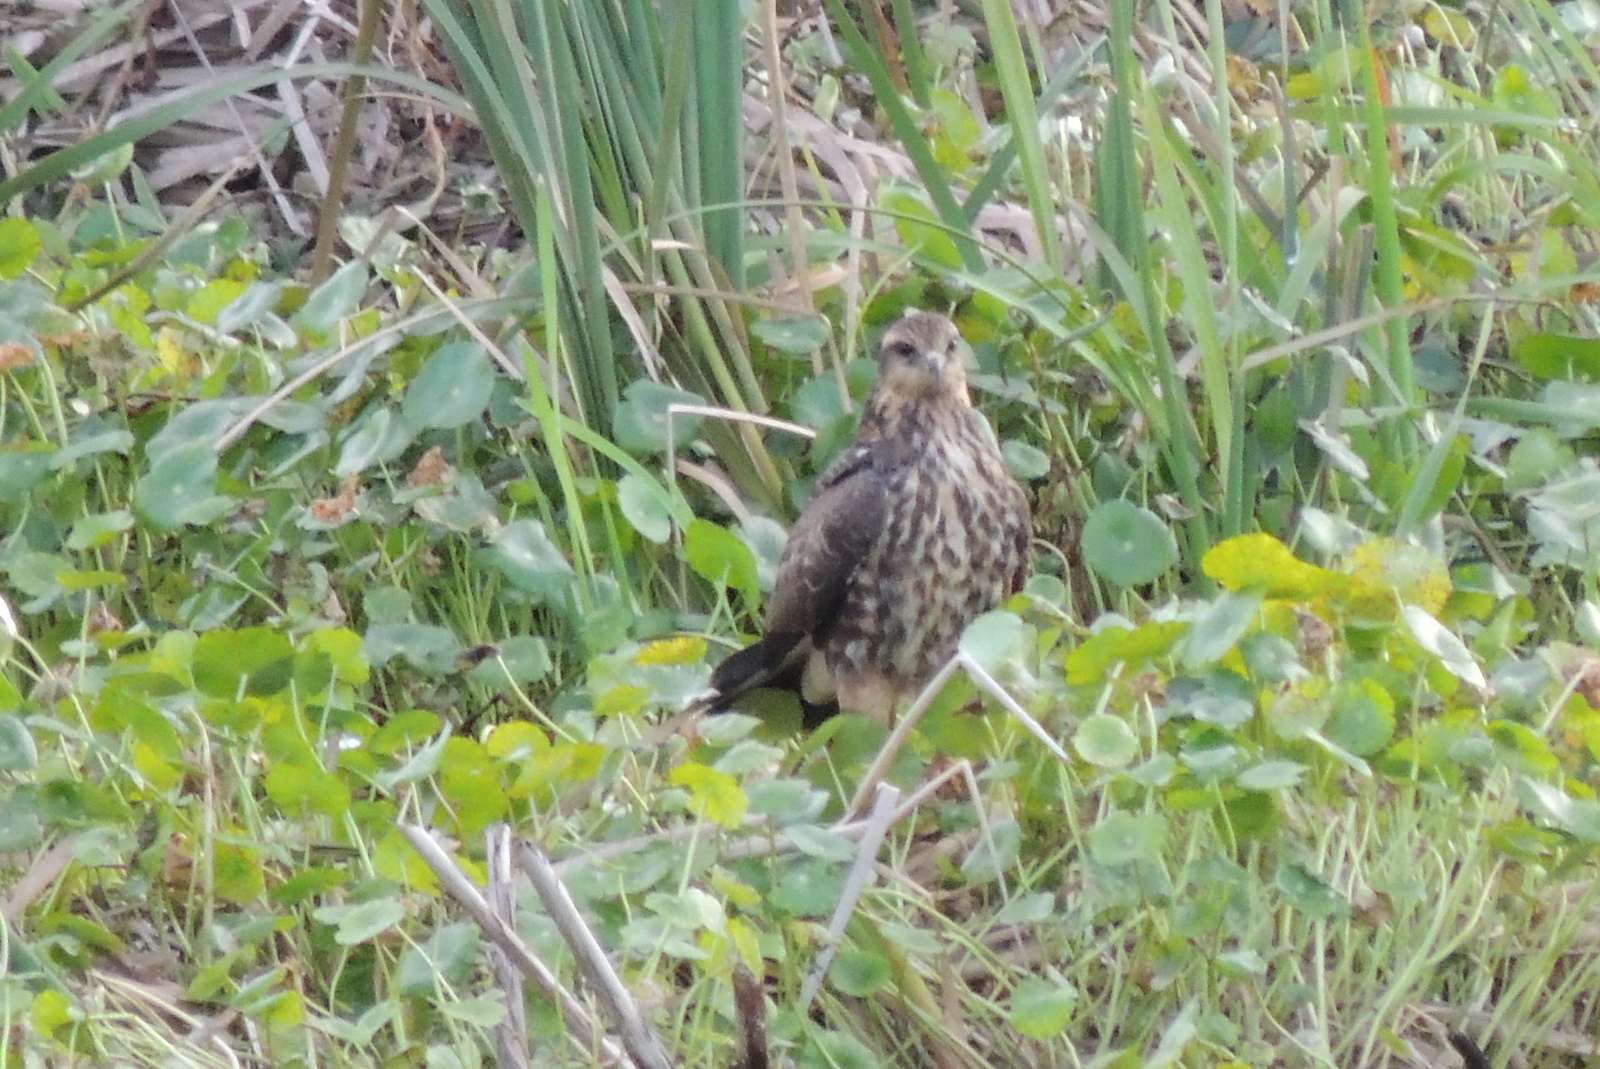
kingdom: Animalia
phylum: Chordata
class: Aves
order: Accipitriformes
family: Accipitridae
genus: Rostrhamus
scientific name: Rostrhamus sociabilis
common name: Snail kite
